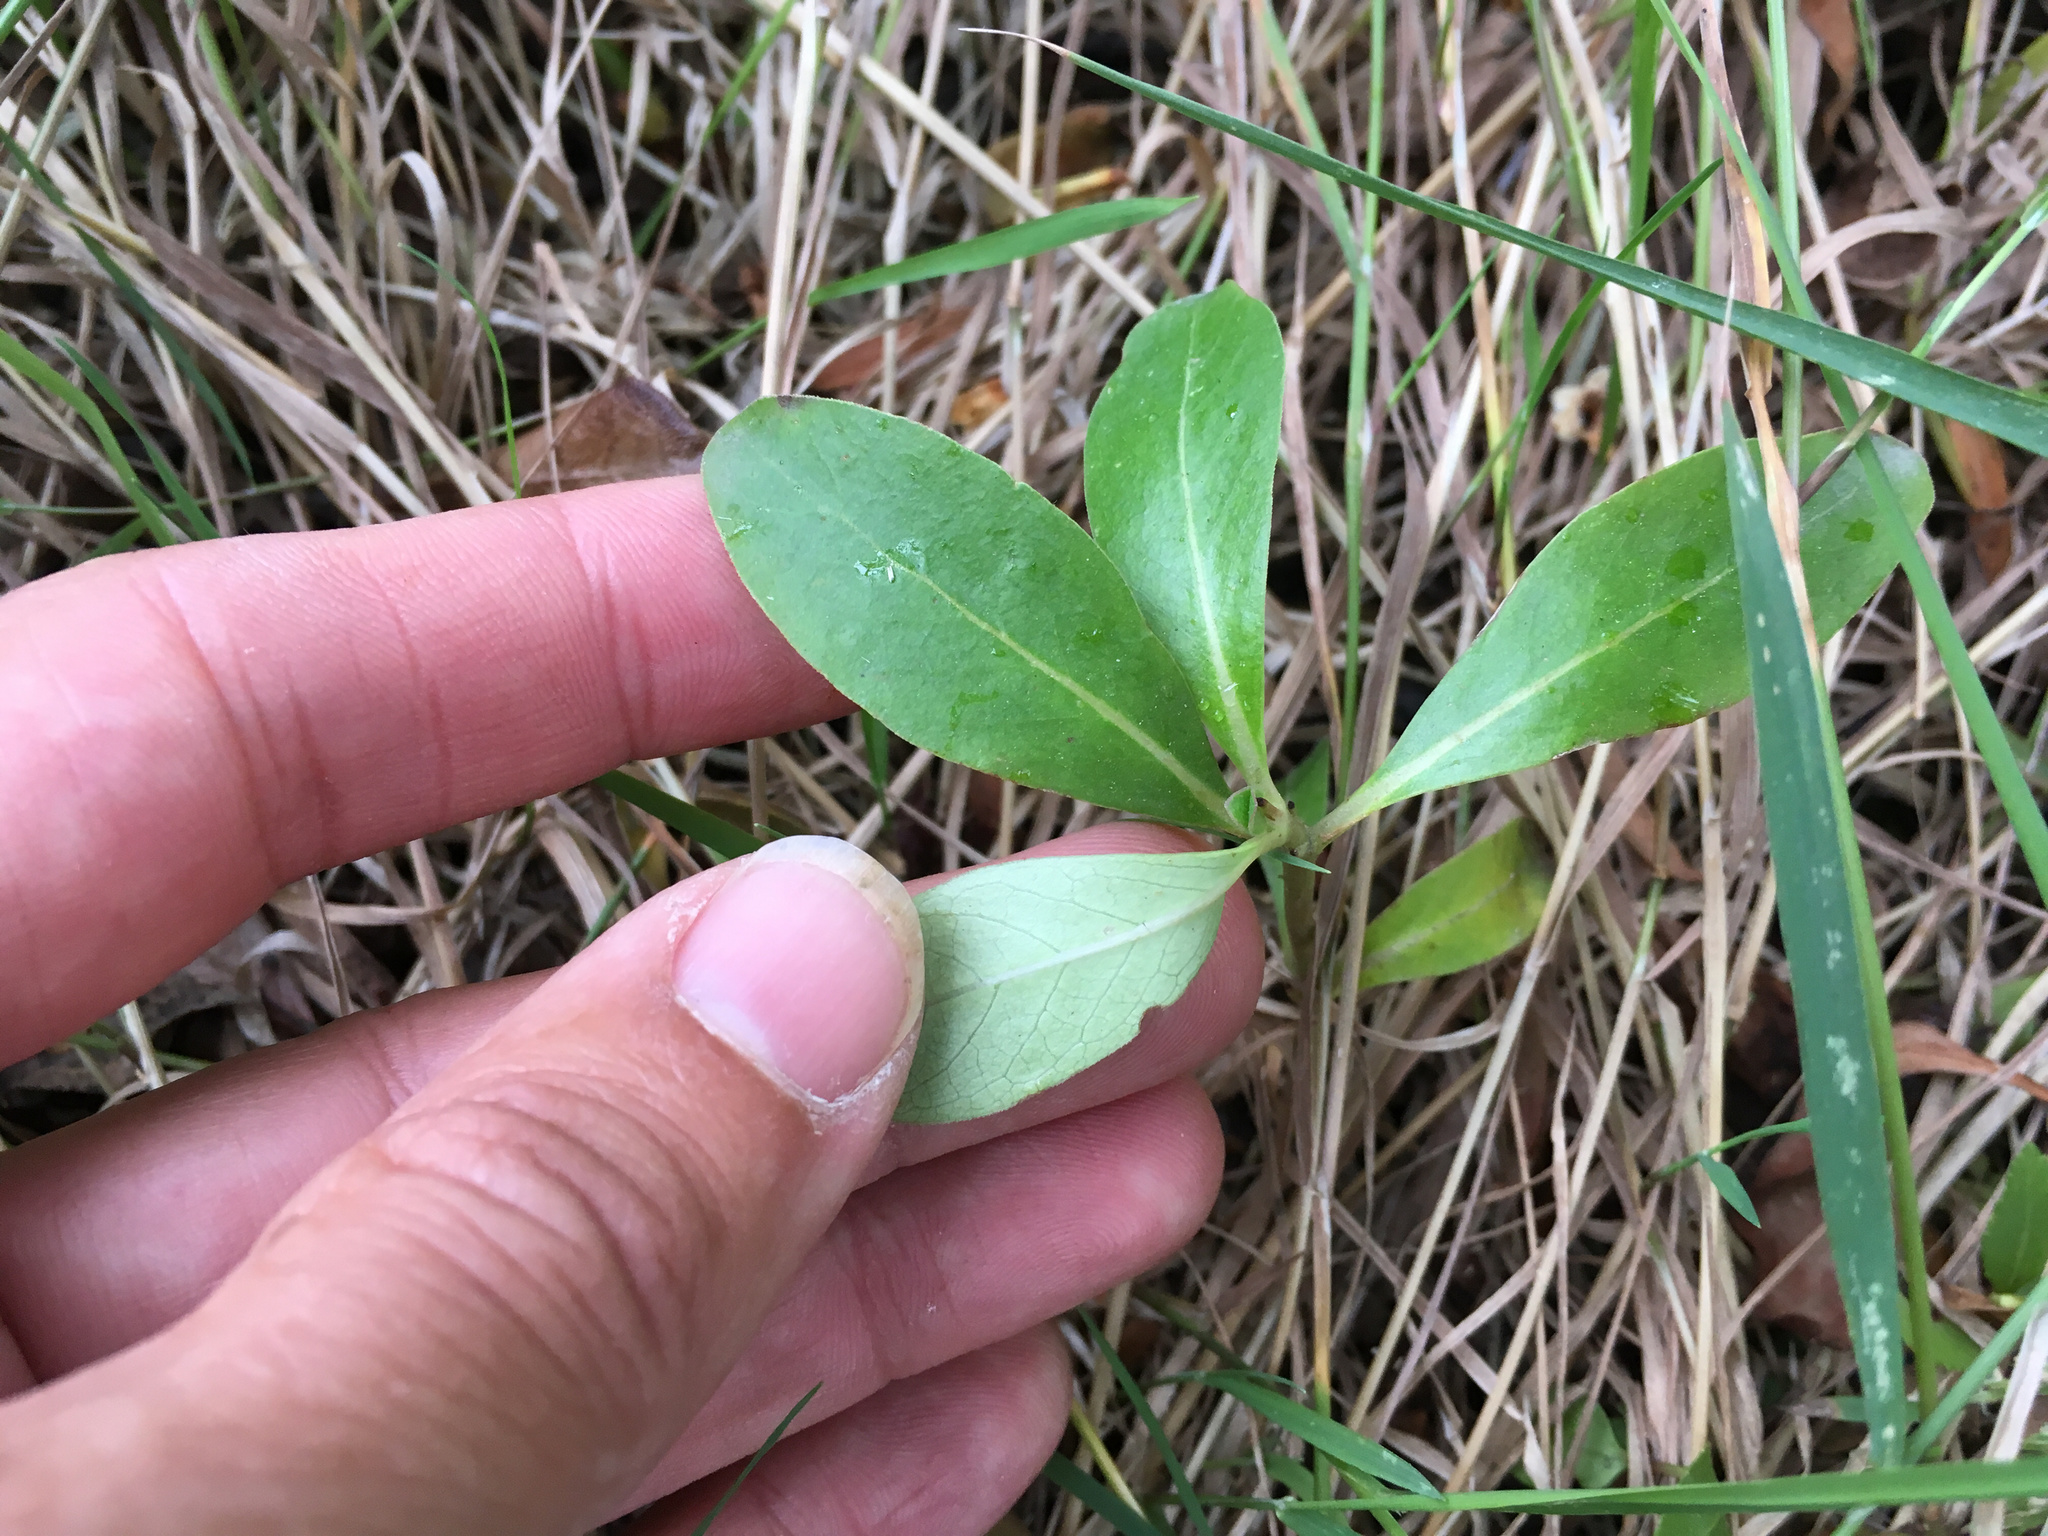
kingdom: Plantae
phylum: Tracheophyta
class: Magnoliopsida
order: Gentianales
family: Rubiaceae
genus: Coprosma
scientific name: Coprosma robusta
